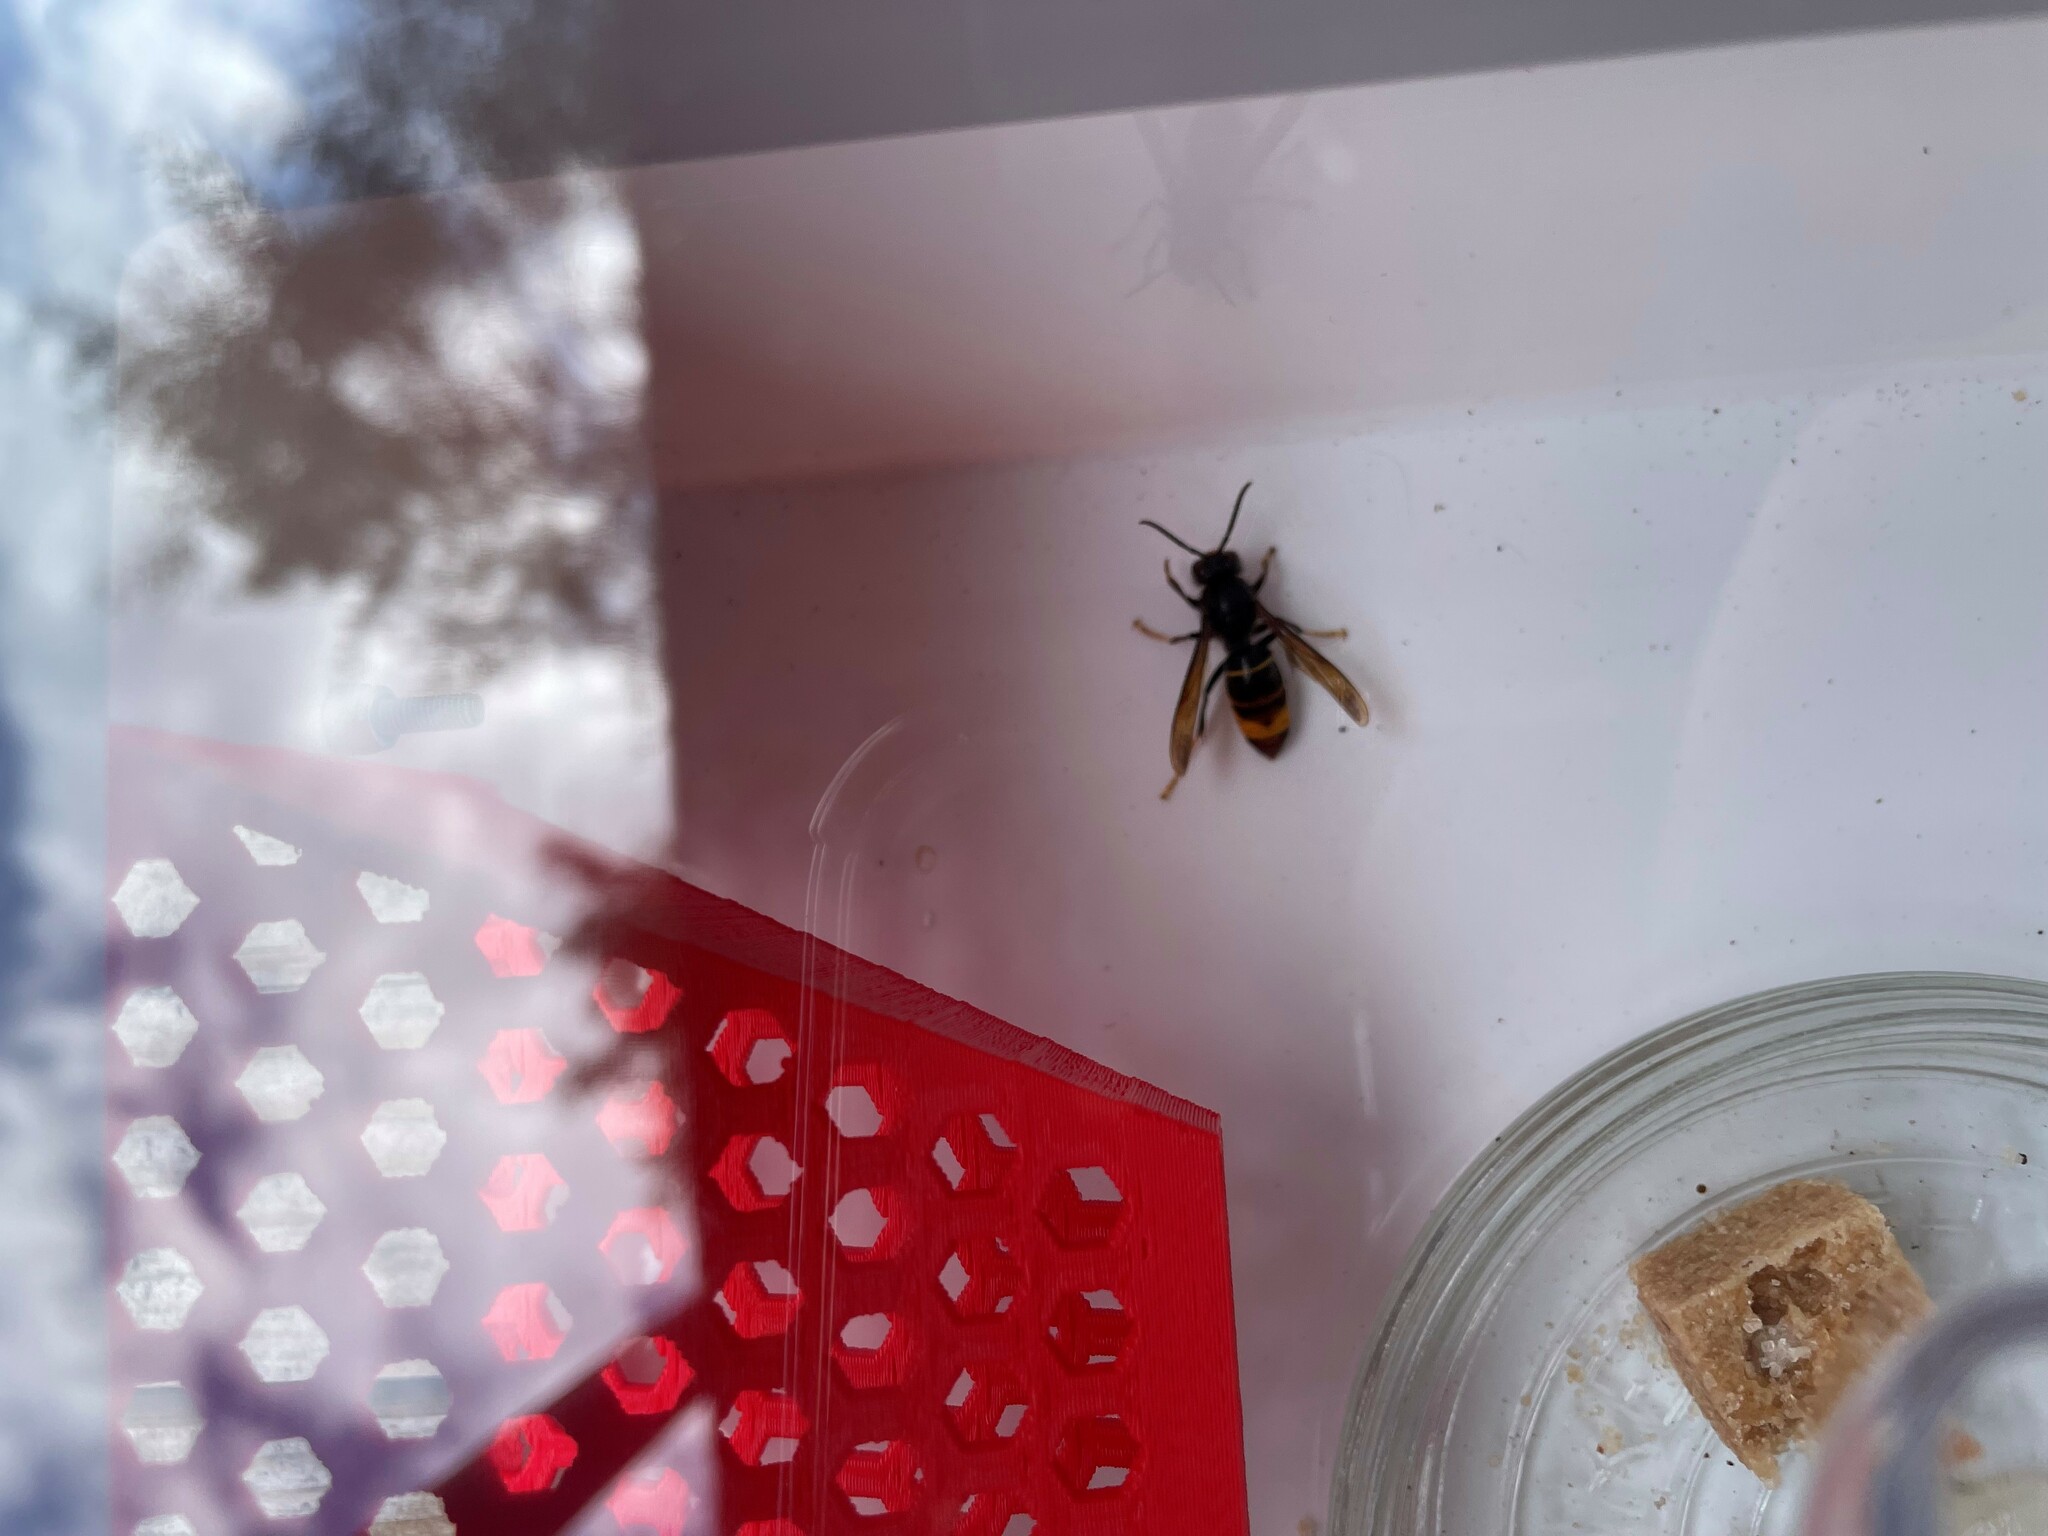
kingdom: Animalia
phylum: Arthropoda
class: Insecta
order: Hymenoptera
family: Vespidae
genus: Vespa
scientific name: Vespa velutina
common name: Asian hornet
